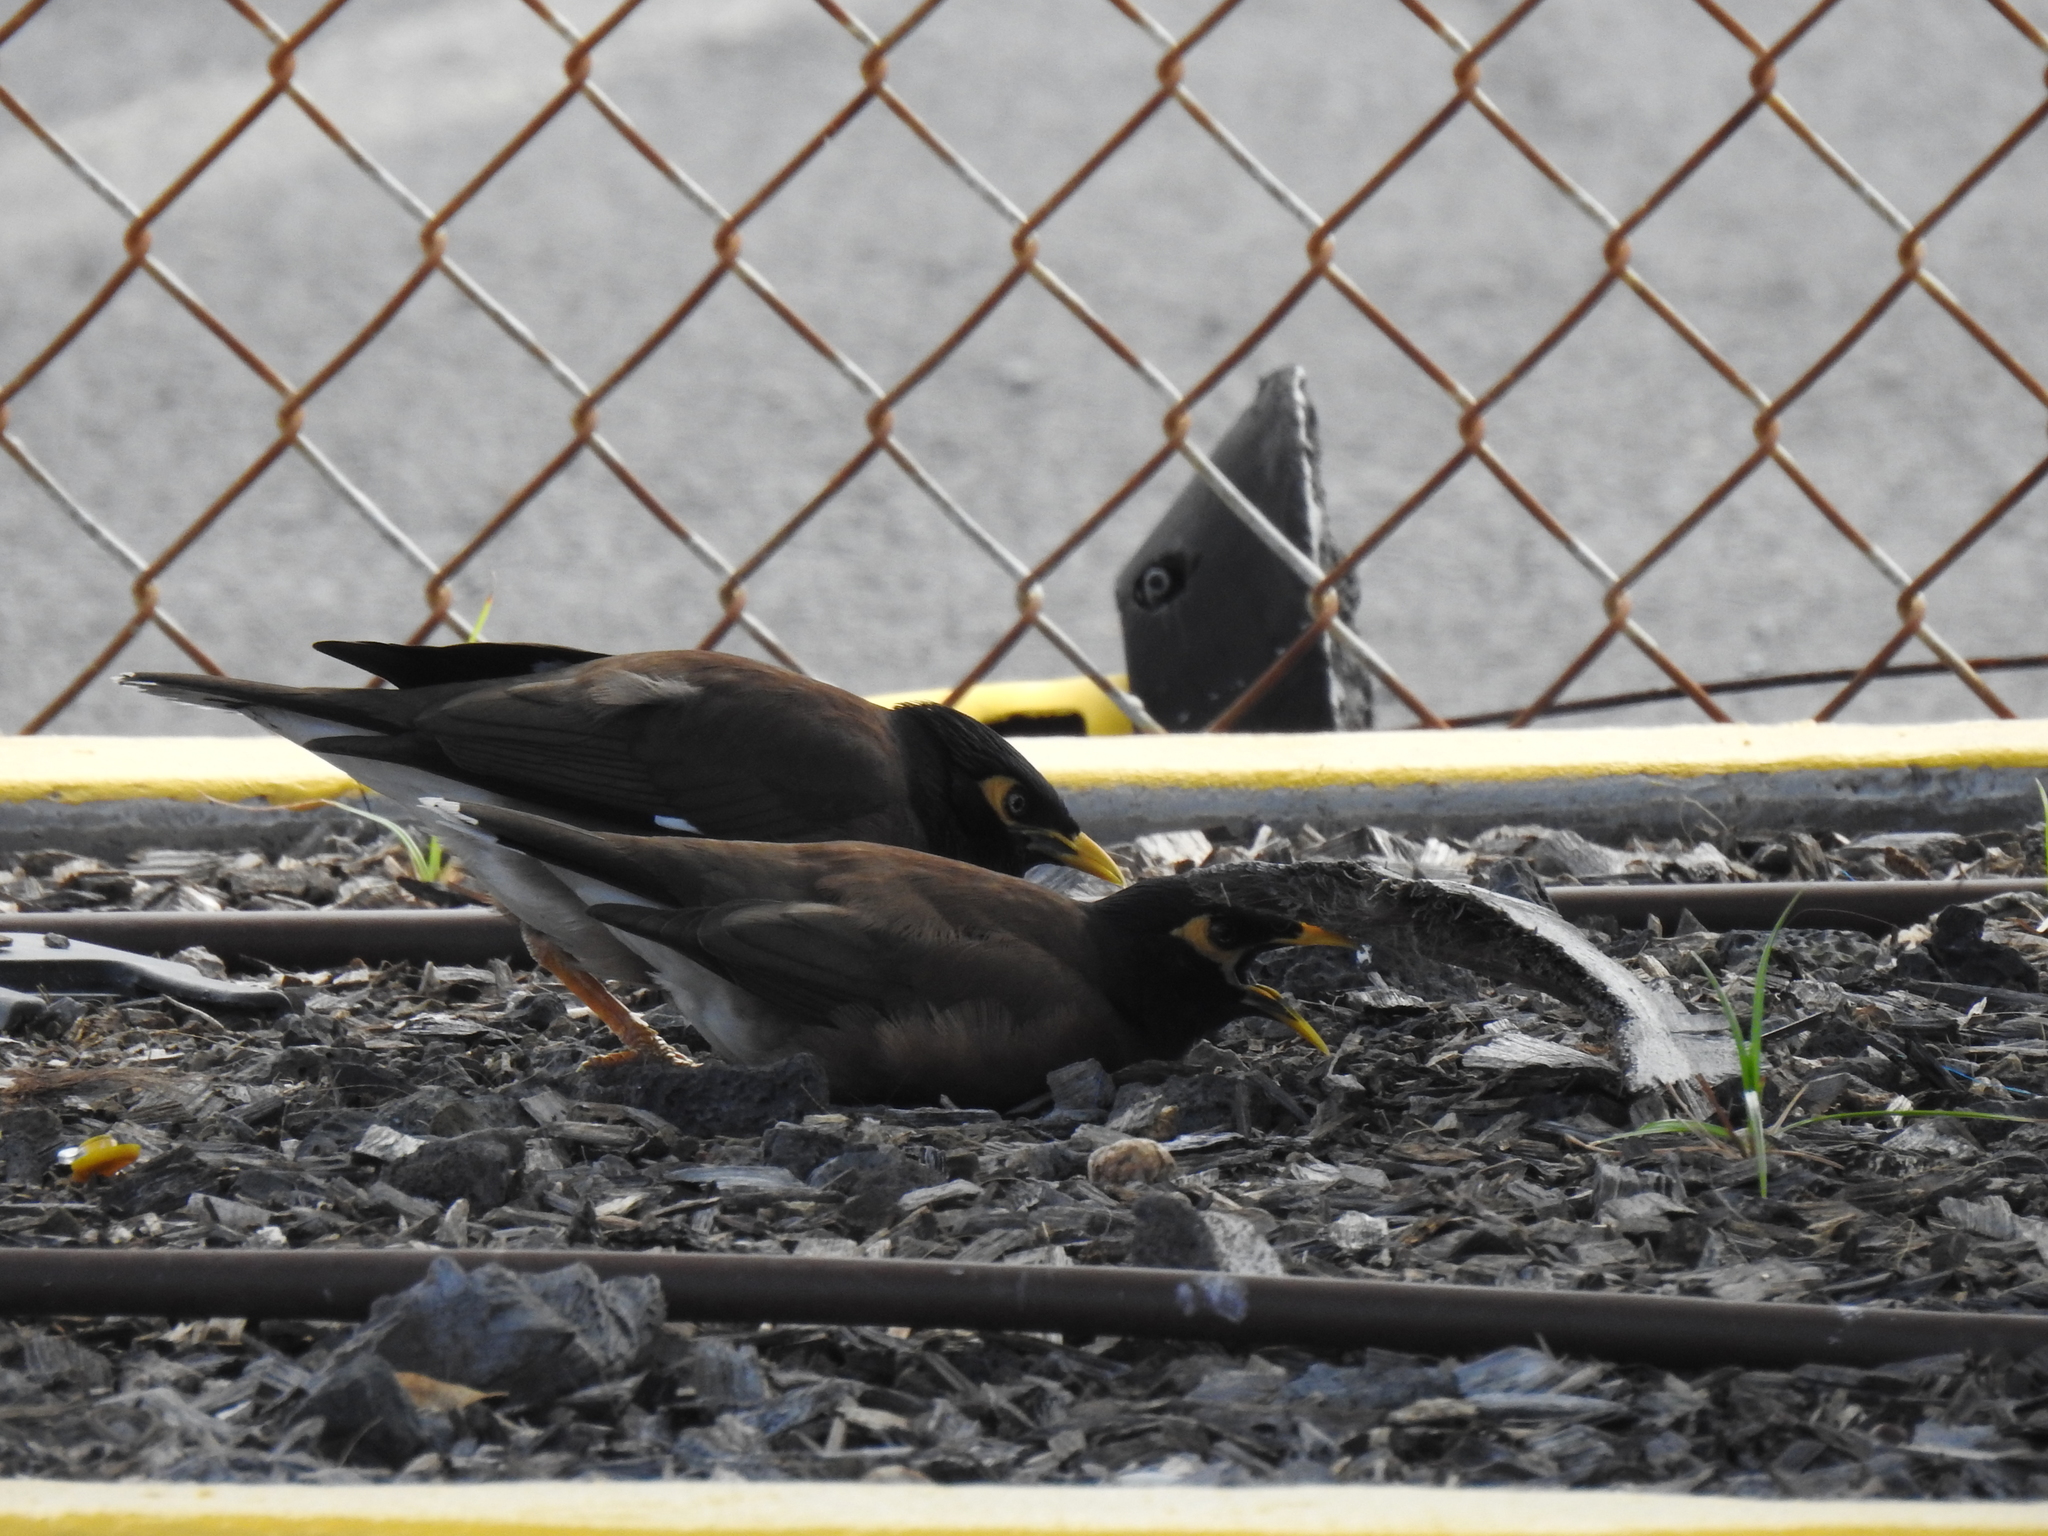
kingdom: Animalia
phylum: Chordata
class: Aves
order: Passeriformes
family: Sturnidae
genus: Acridotheres
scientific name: Acridotheres tristis
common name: Common myna
